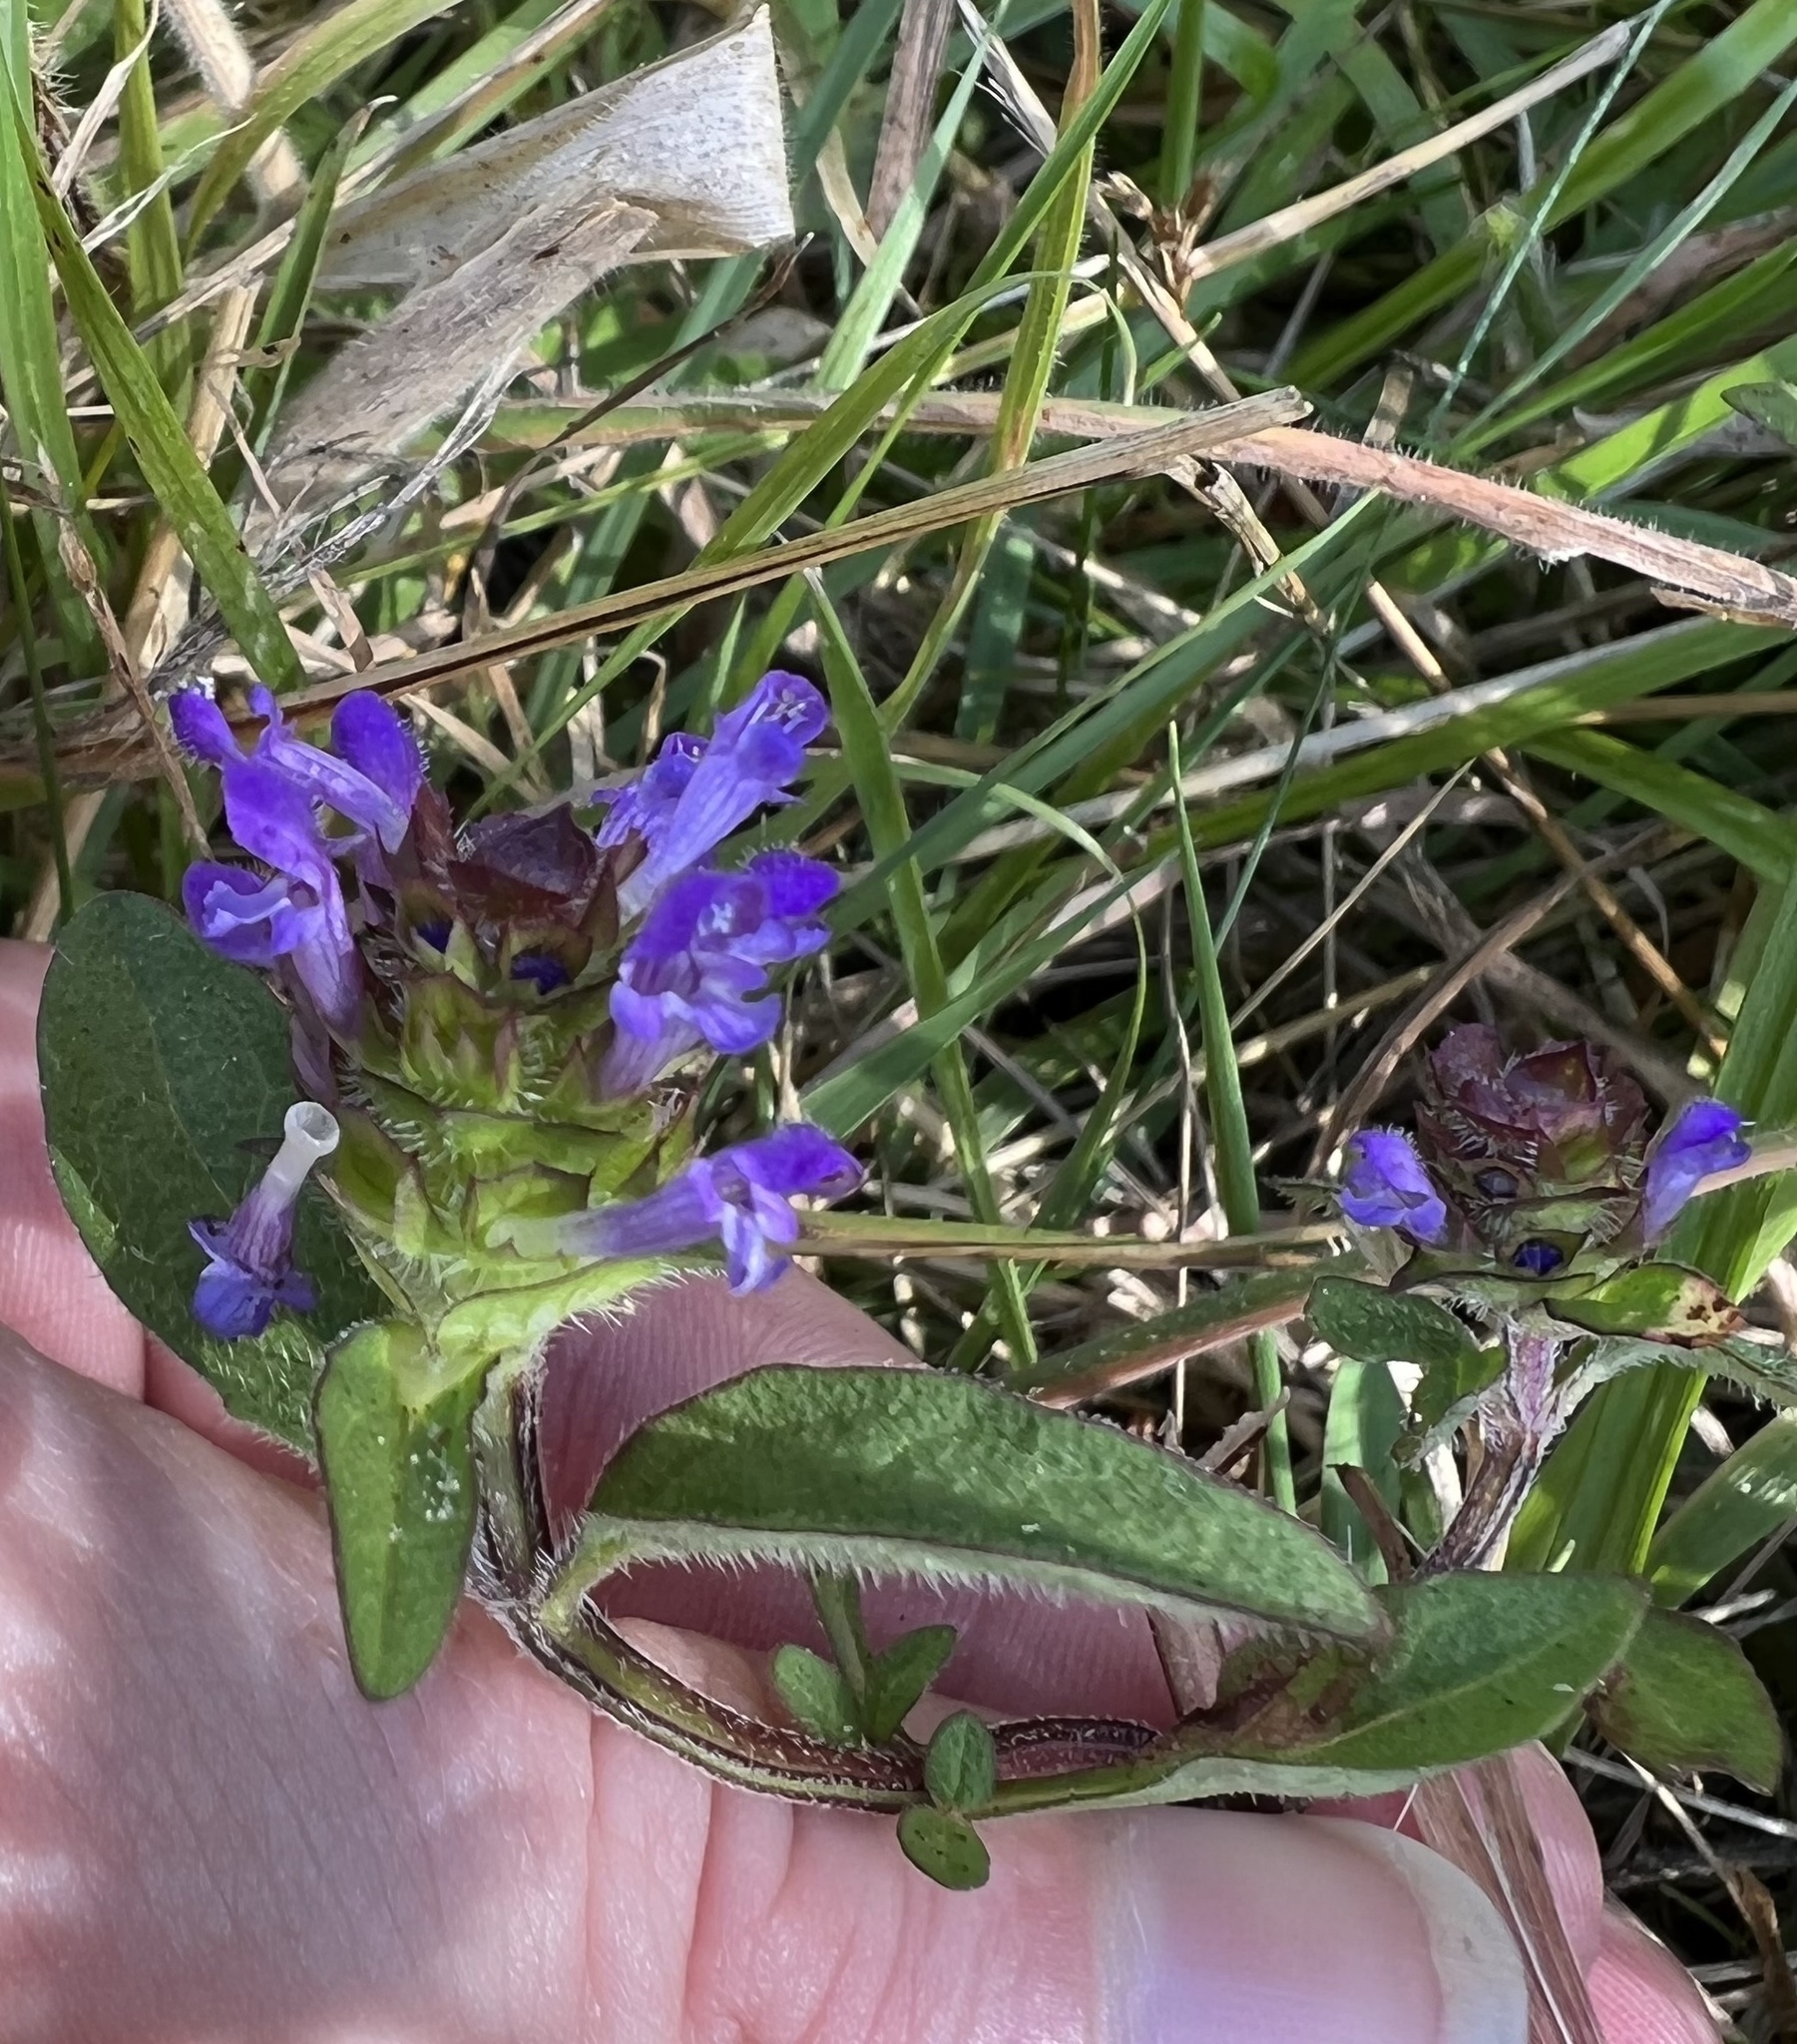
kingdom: Plantae
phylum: Tracheophyta
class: Magnoliopsida
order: Lamiales
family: Lamiaceae
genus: Prunella
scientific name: Prunella vulgaris
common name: Heal-all
